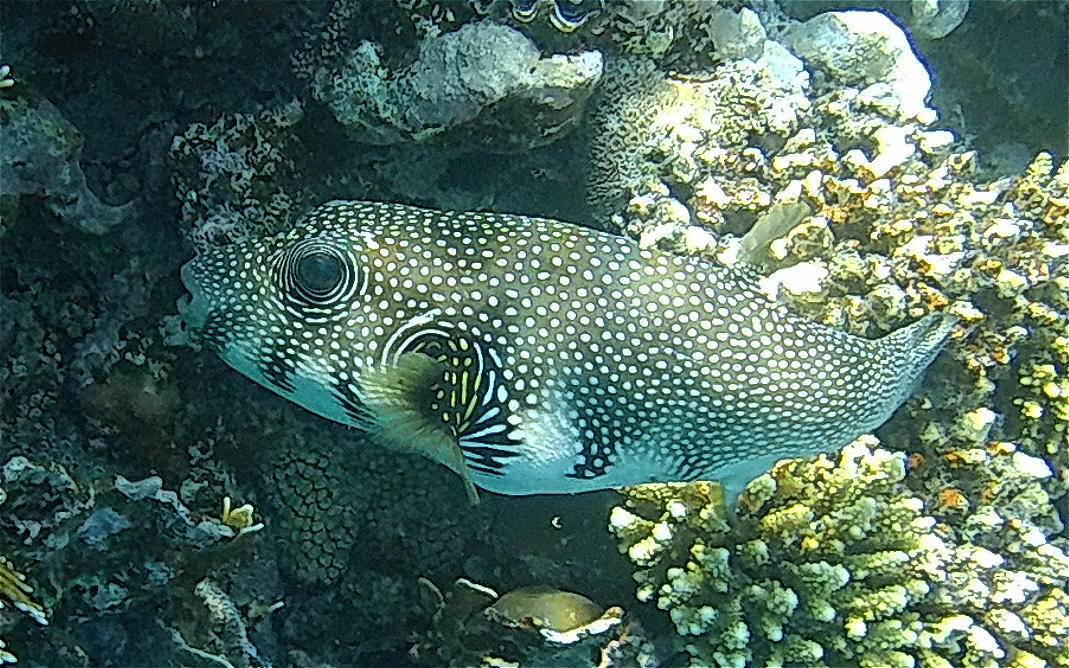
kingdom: Animalia
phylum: Chordata
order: Tetraodontiformes
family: Tetraodontidae
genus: Arothron
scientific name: Arothron hispidus
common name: Stripebelly puffer
